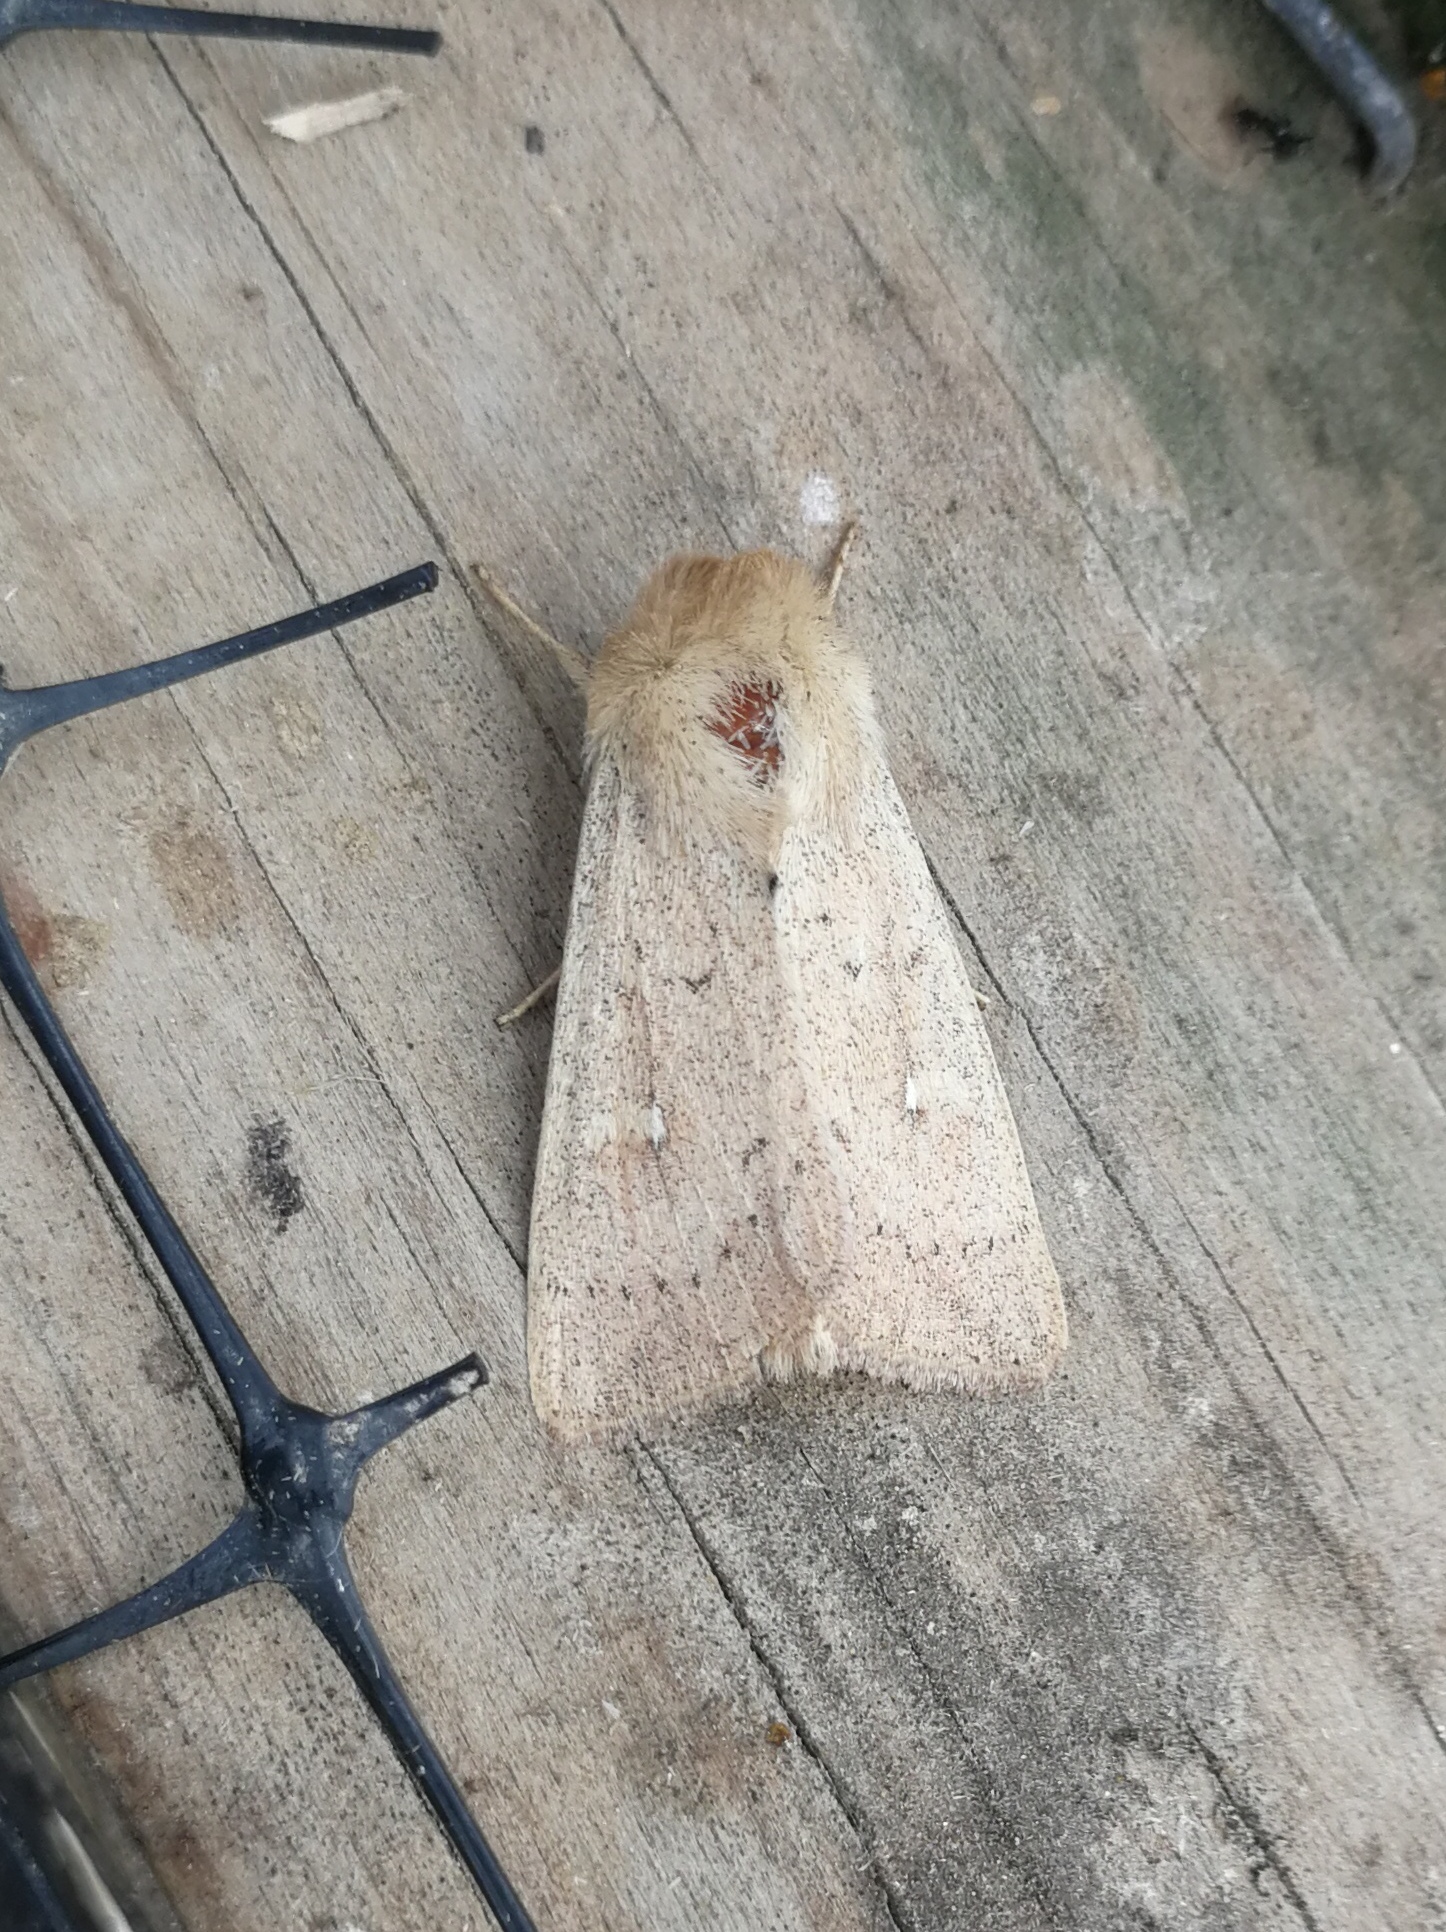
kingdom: Animalia
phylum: Arthropoda
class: Insecta
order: Lepidoptera
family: Noctuidae
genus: Mythimna
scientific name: Mythimna ferrago
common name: Clay
